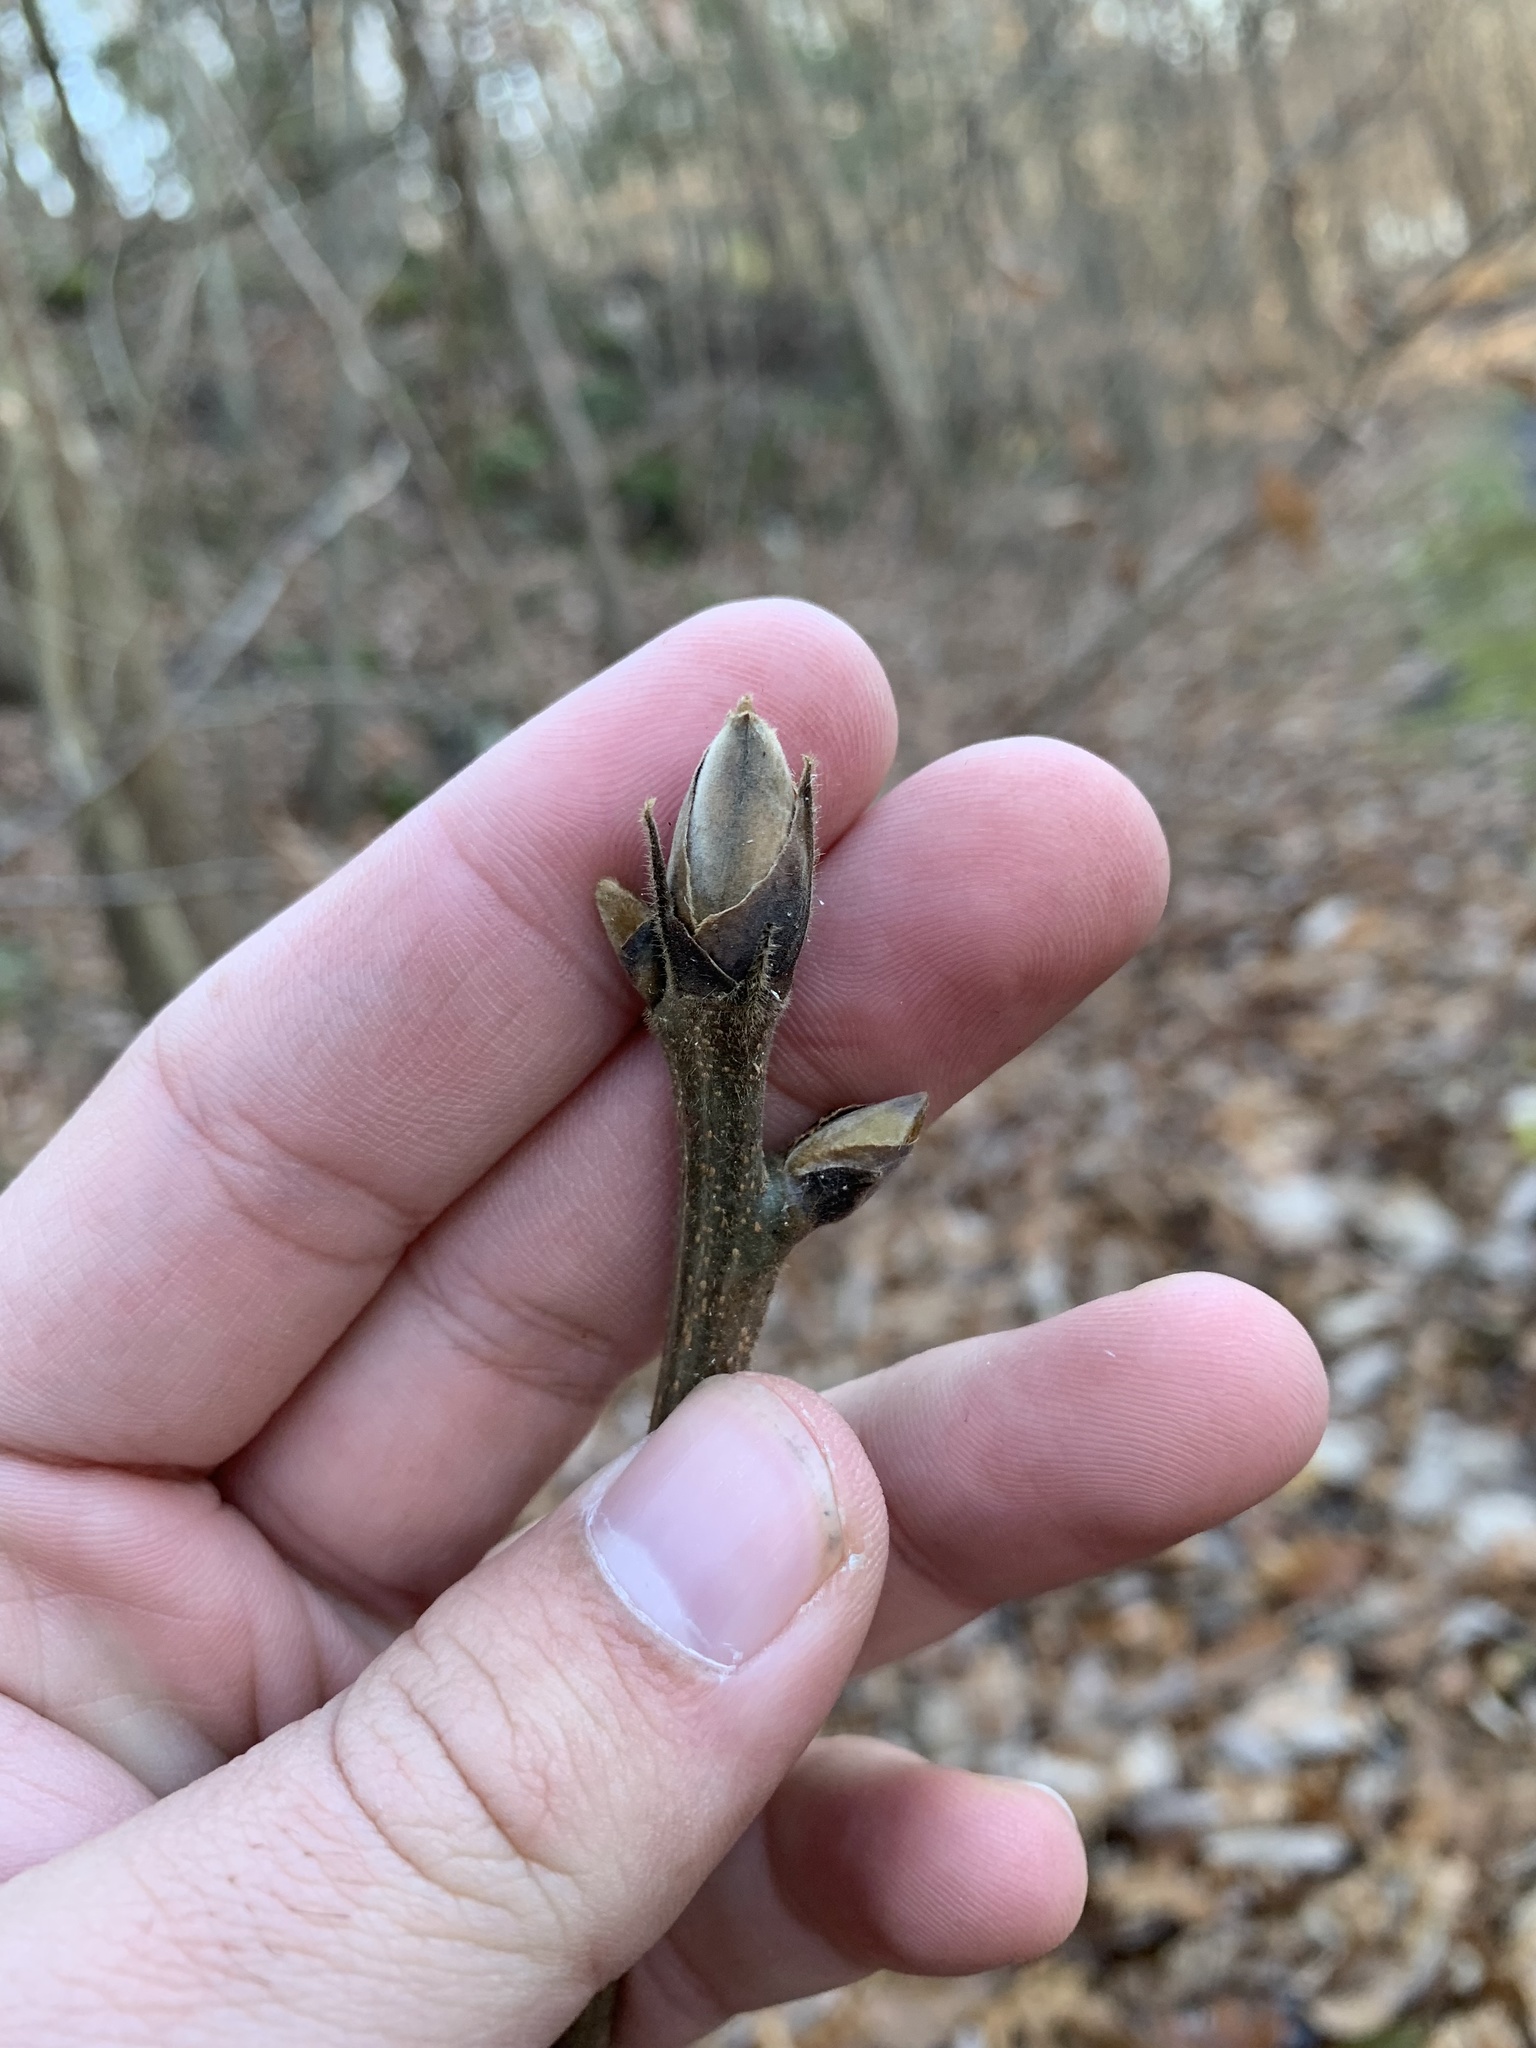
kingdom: Plantae
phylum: Tracheophyta
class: Magnoliopsida
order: Fagales
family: Juglandaceae
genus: Carya
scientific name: Carya ovata
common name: Shagbark hickory
